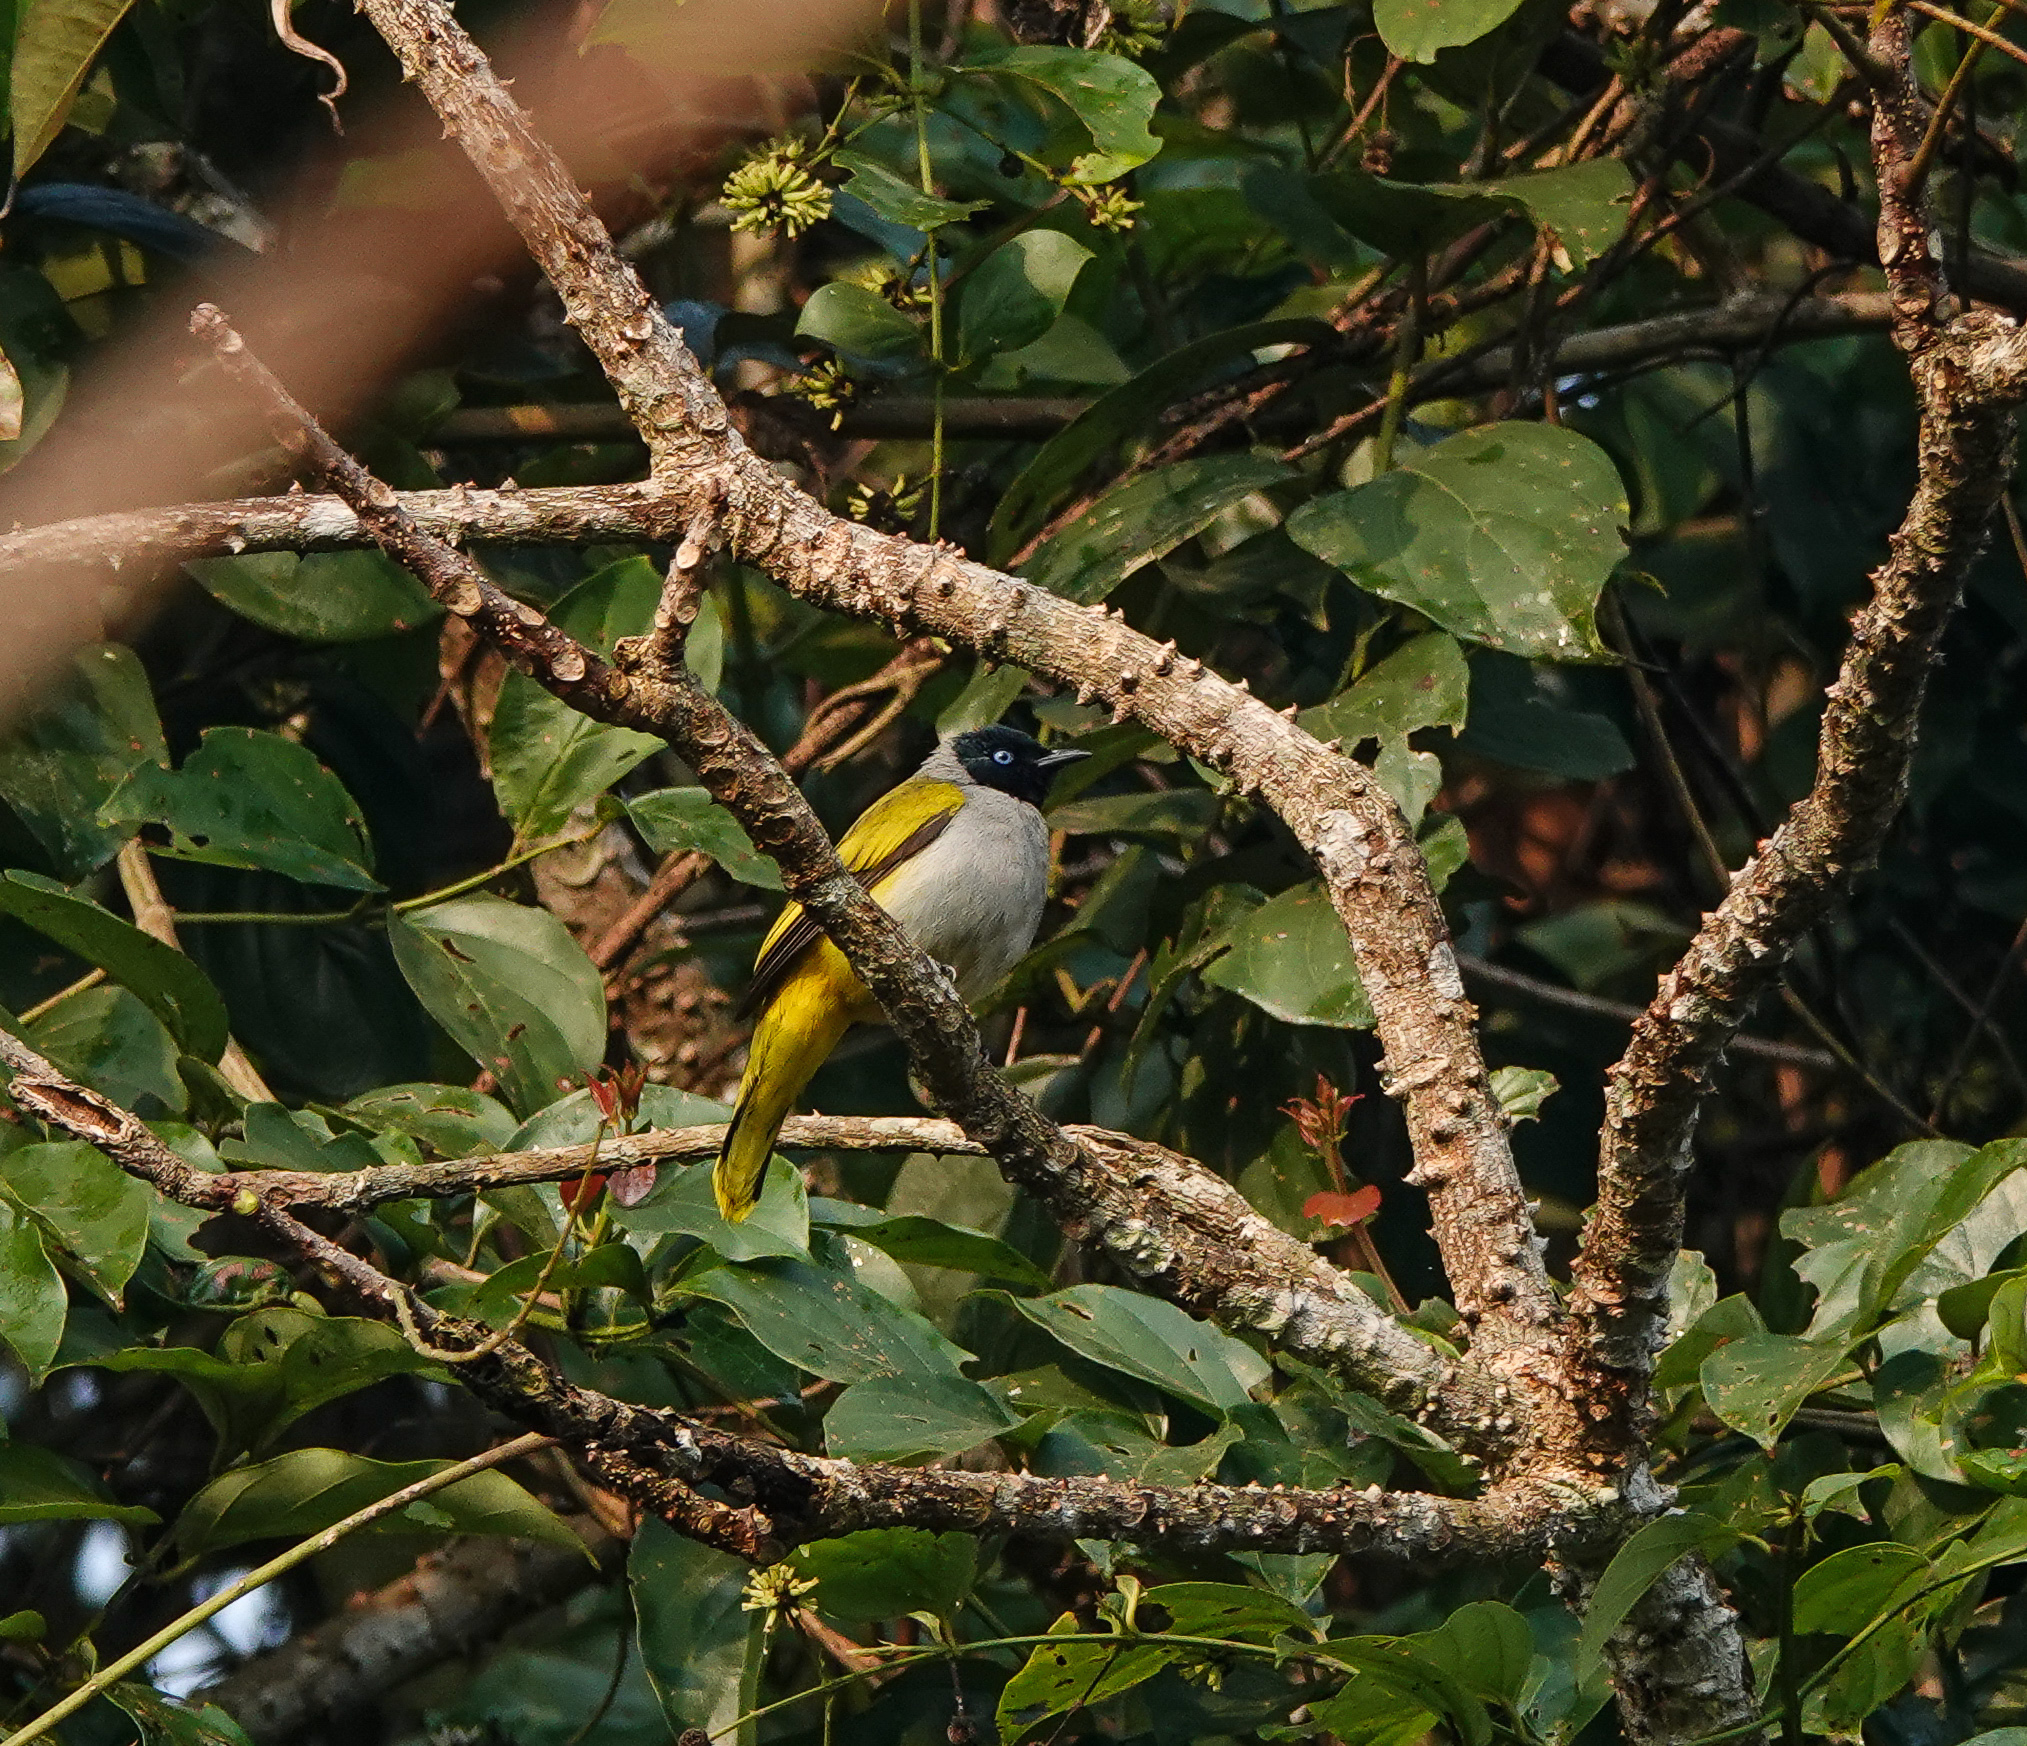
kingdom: Animalia
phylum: Chordata
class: Aves
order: Passeriformes
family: Pycnonotidae
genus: Microtarsus
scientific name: Microtarsus
